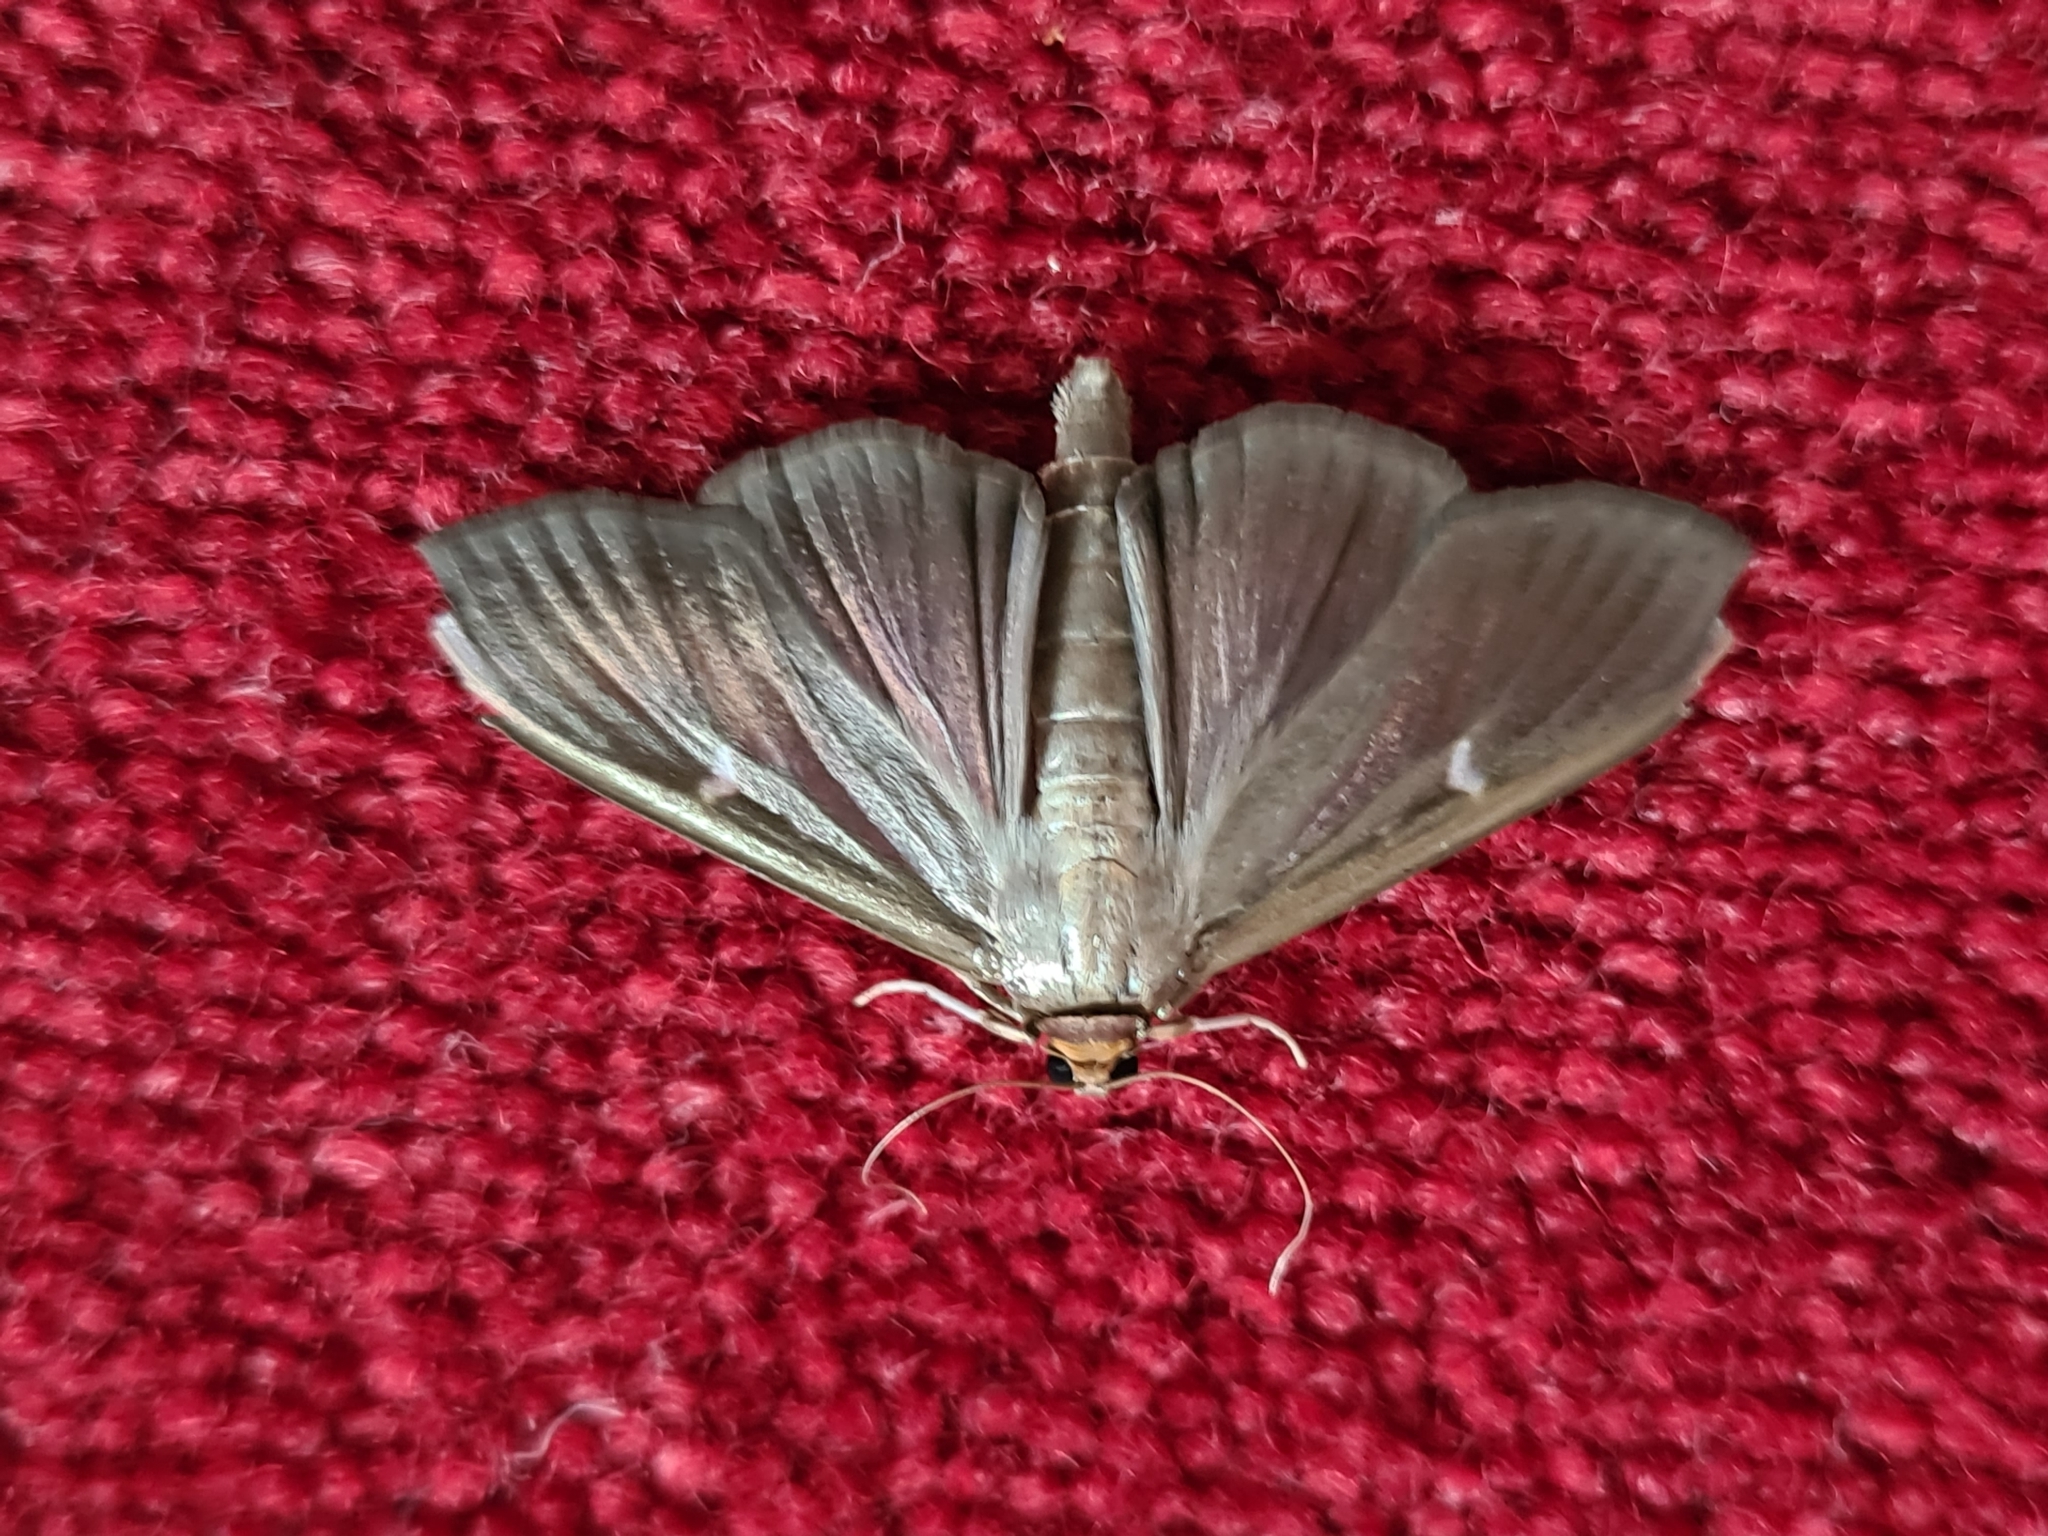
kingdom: Animalia
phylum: Arthropoda
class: Insecta
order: Lepidoptera
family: Crambidae
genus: Cydalima
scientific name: Cydalima perspectalis
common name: Box tree moth
